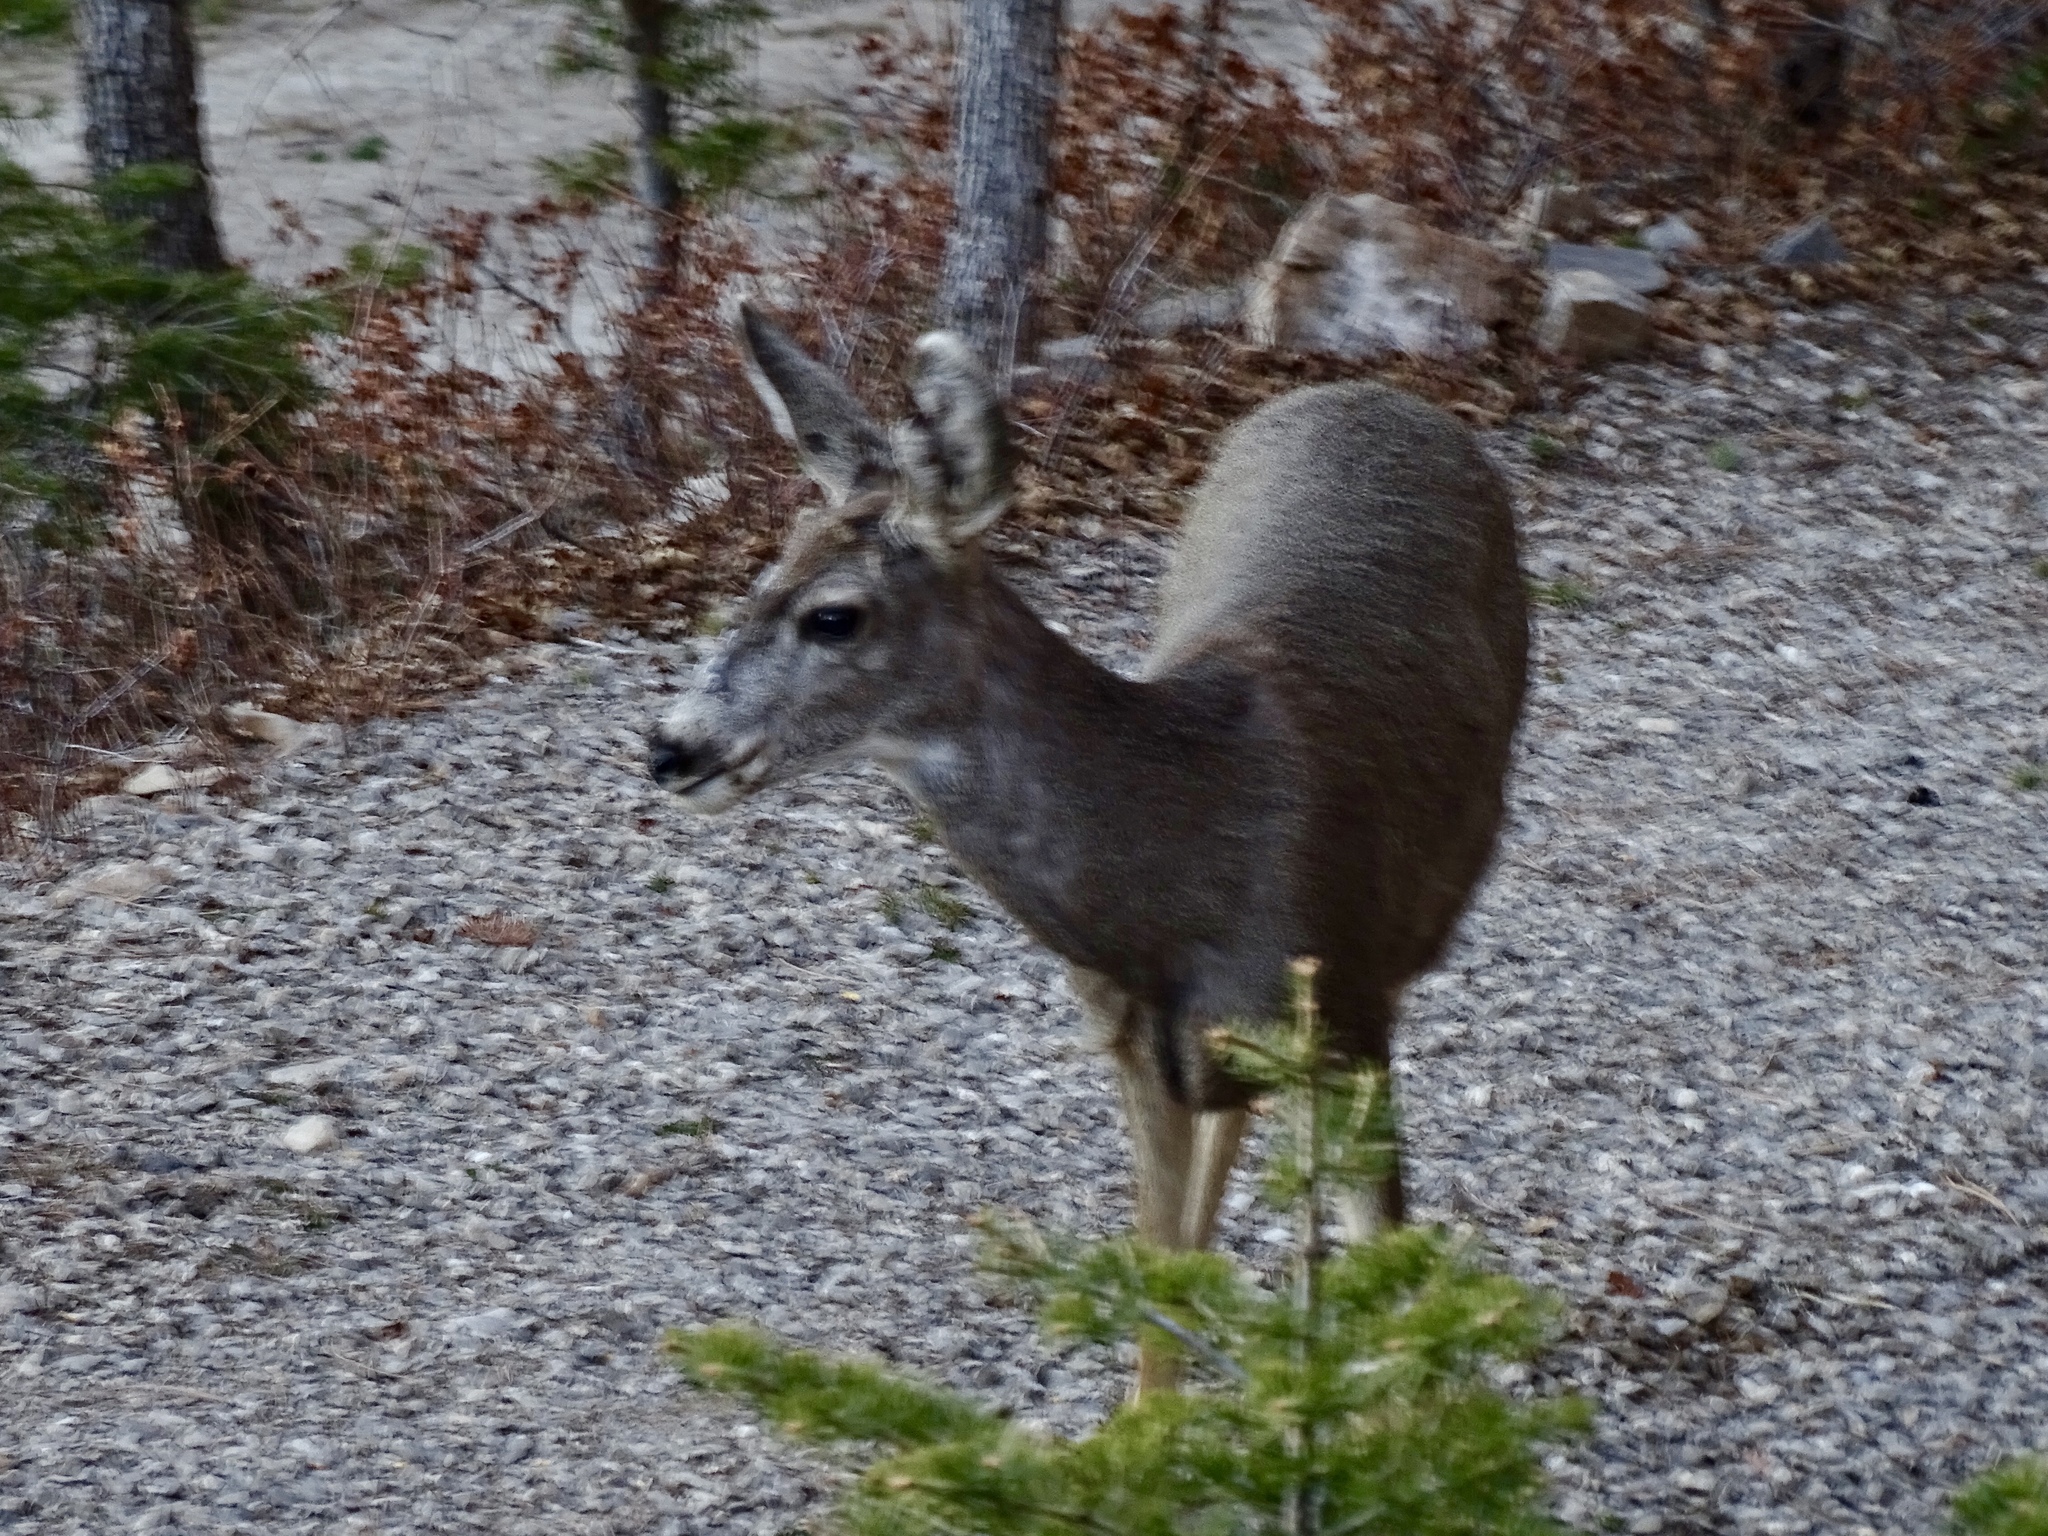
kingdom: Animalia
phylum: Chordata
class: Mammalia
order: Artiodactyla
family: Cervidae
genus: Odocoileus
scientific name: Odocoileus hemionus
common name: Mule deer
